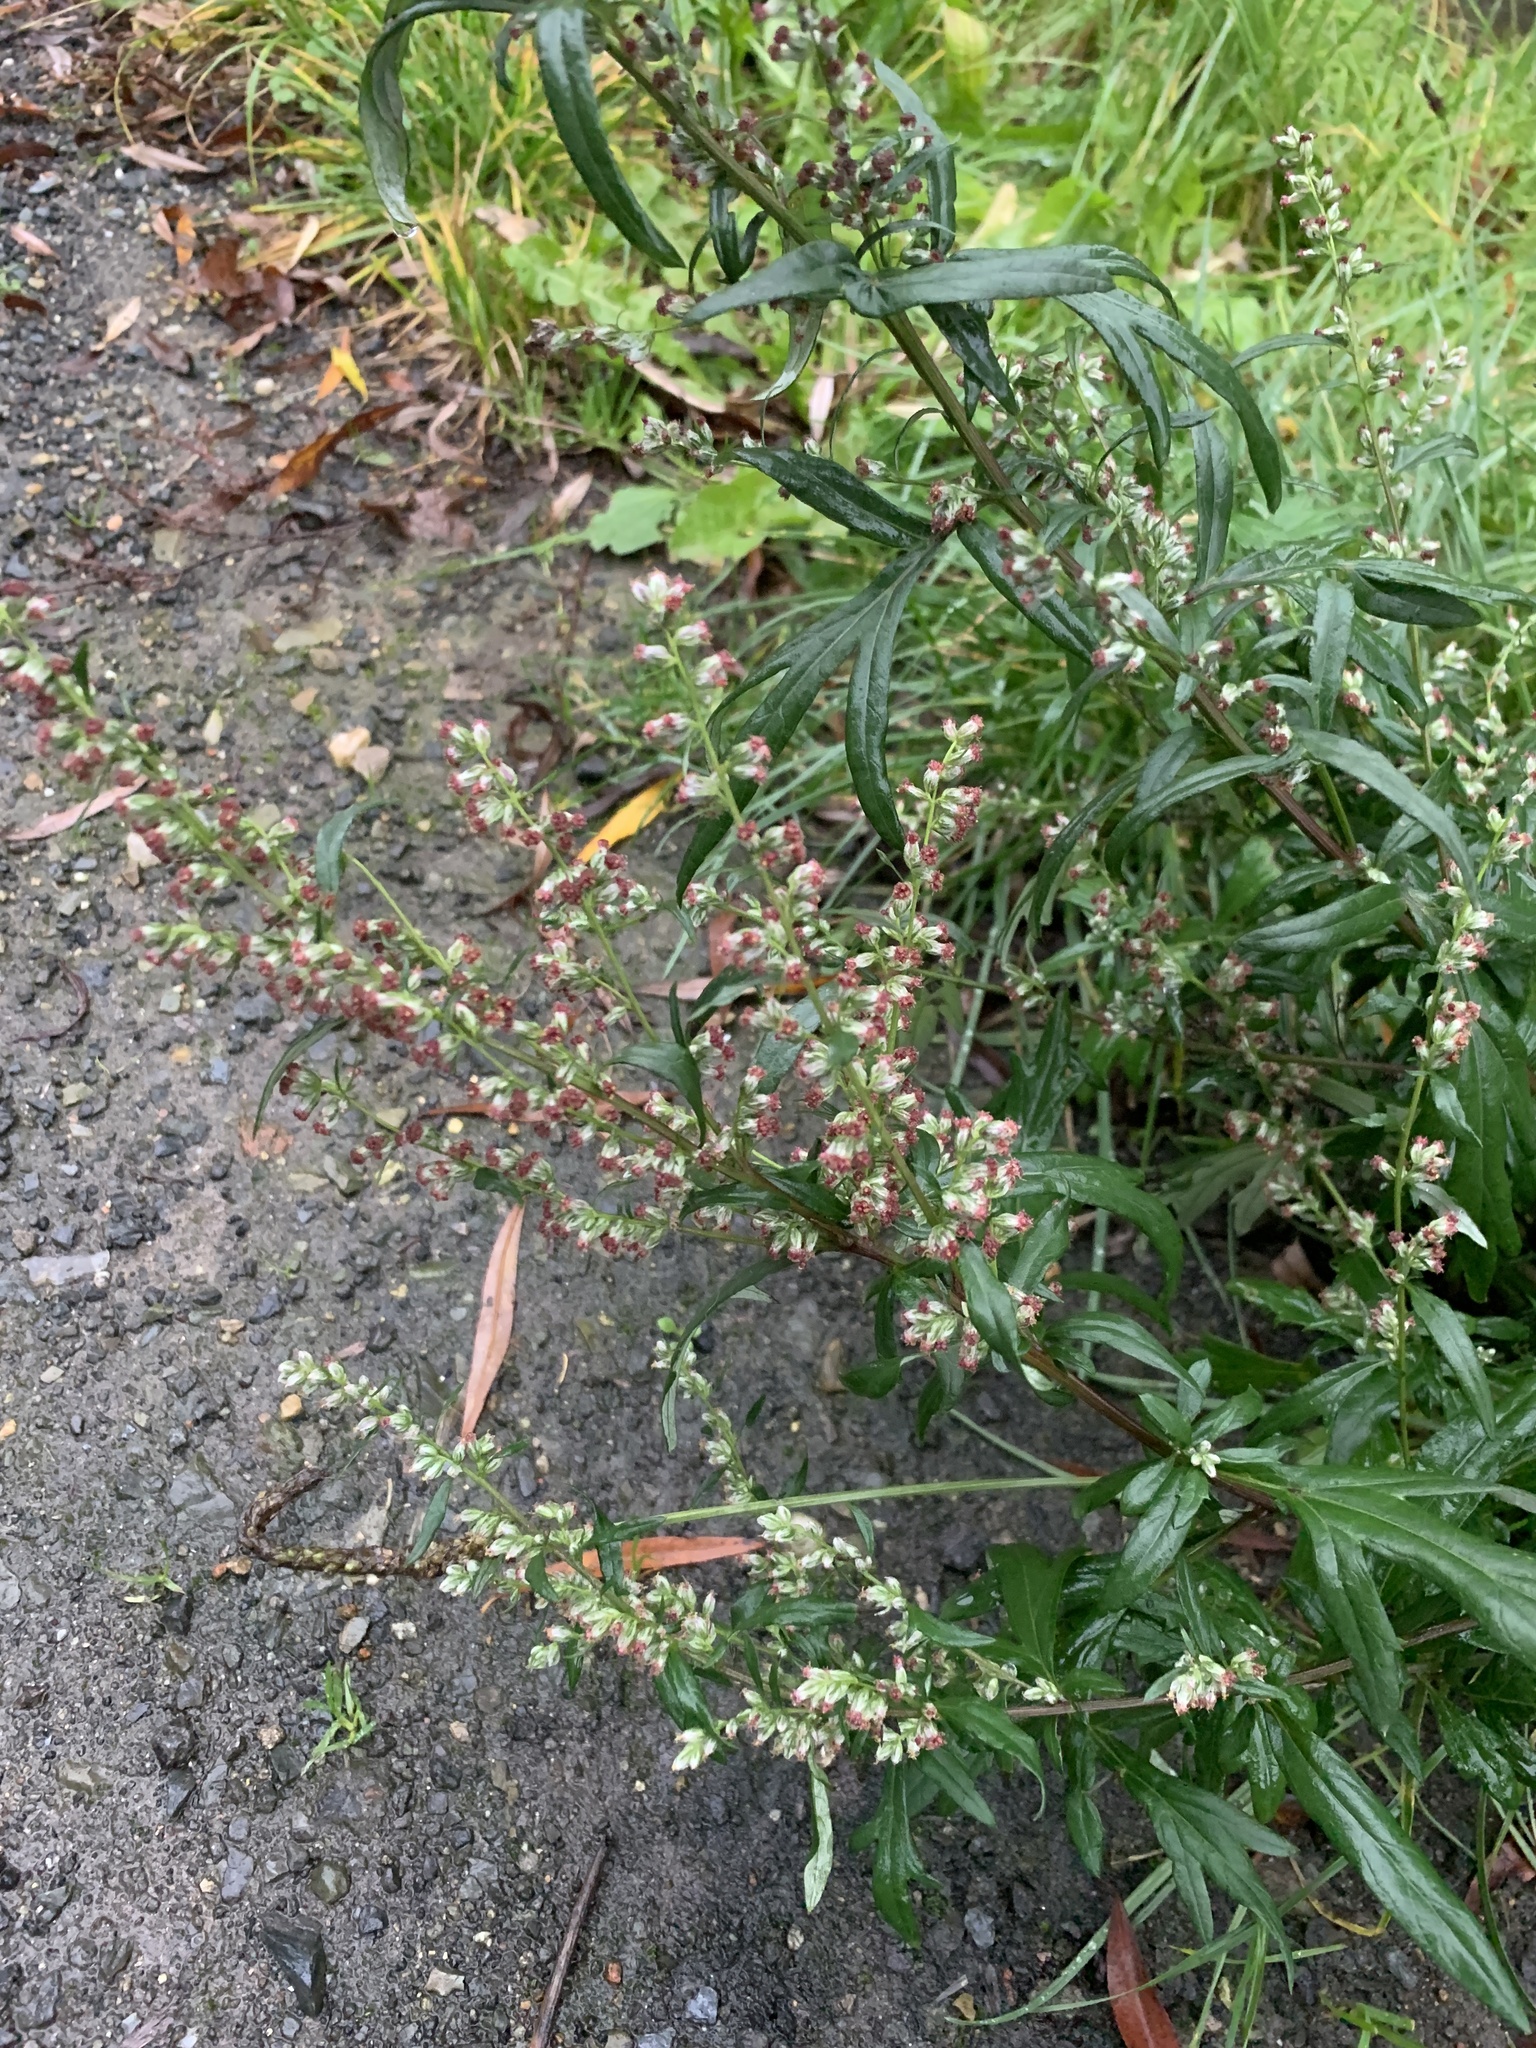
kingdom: Plantae
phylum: Tracheophyta
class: Magnoliopsida
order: Asterales
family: Asteraceae
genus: Artemisia
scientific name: Artemisia vulgaris
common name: Mugwort
